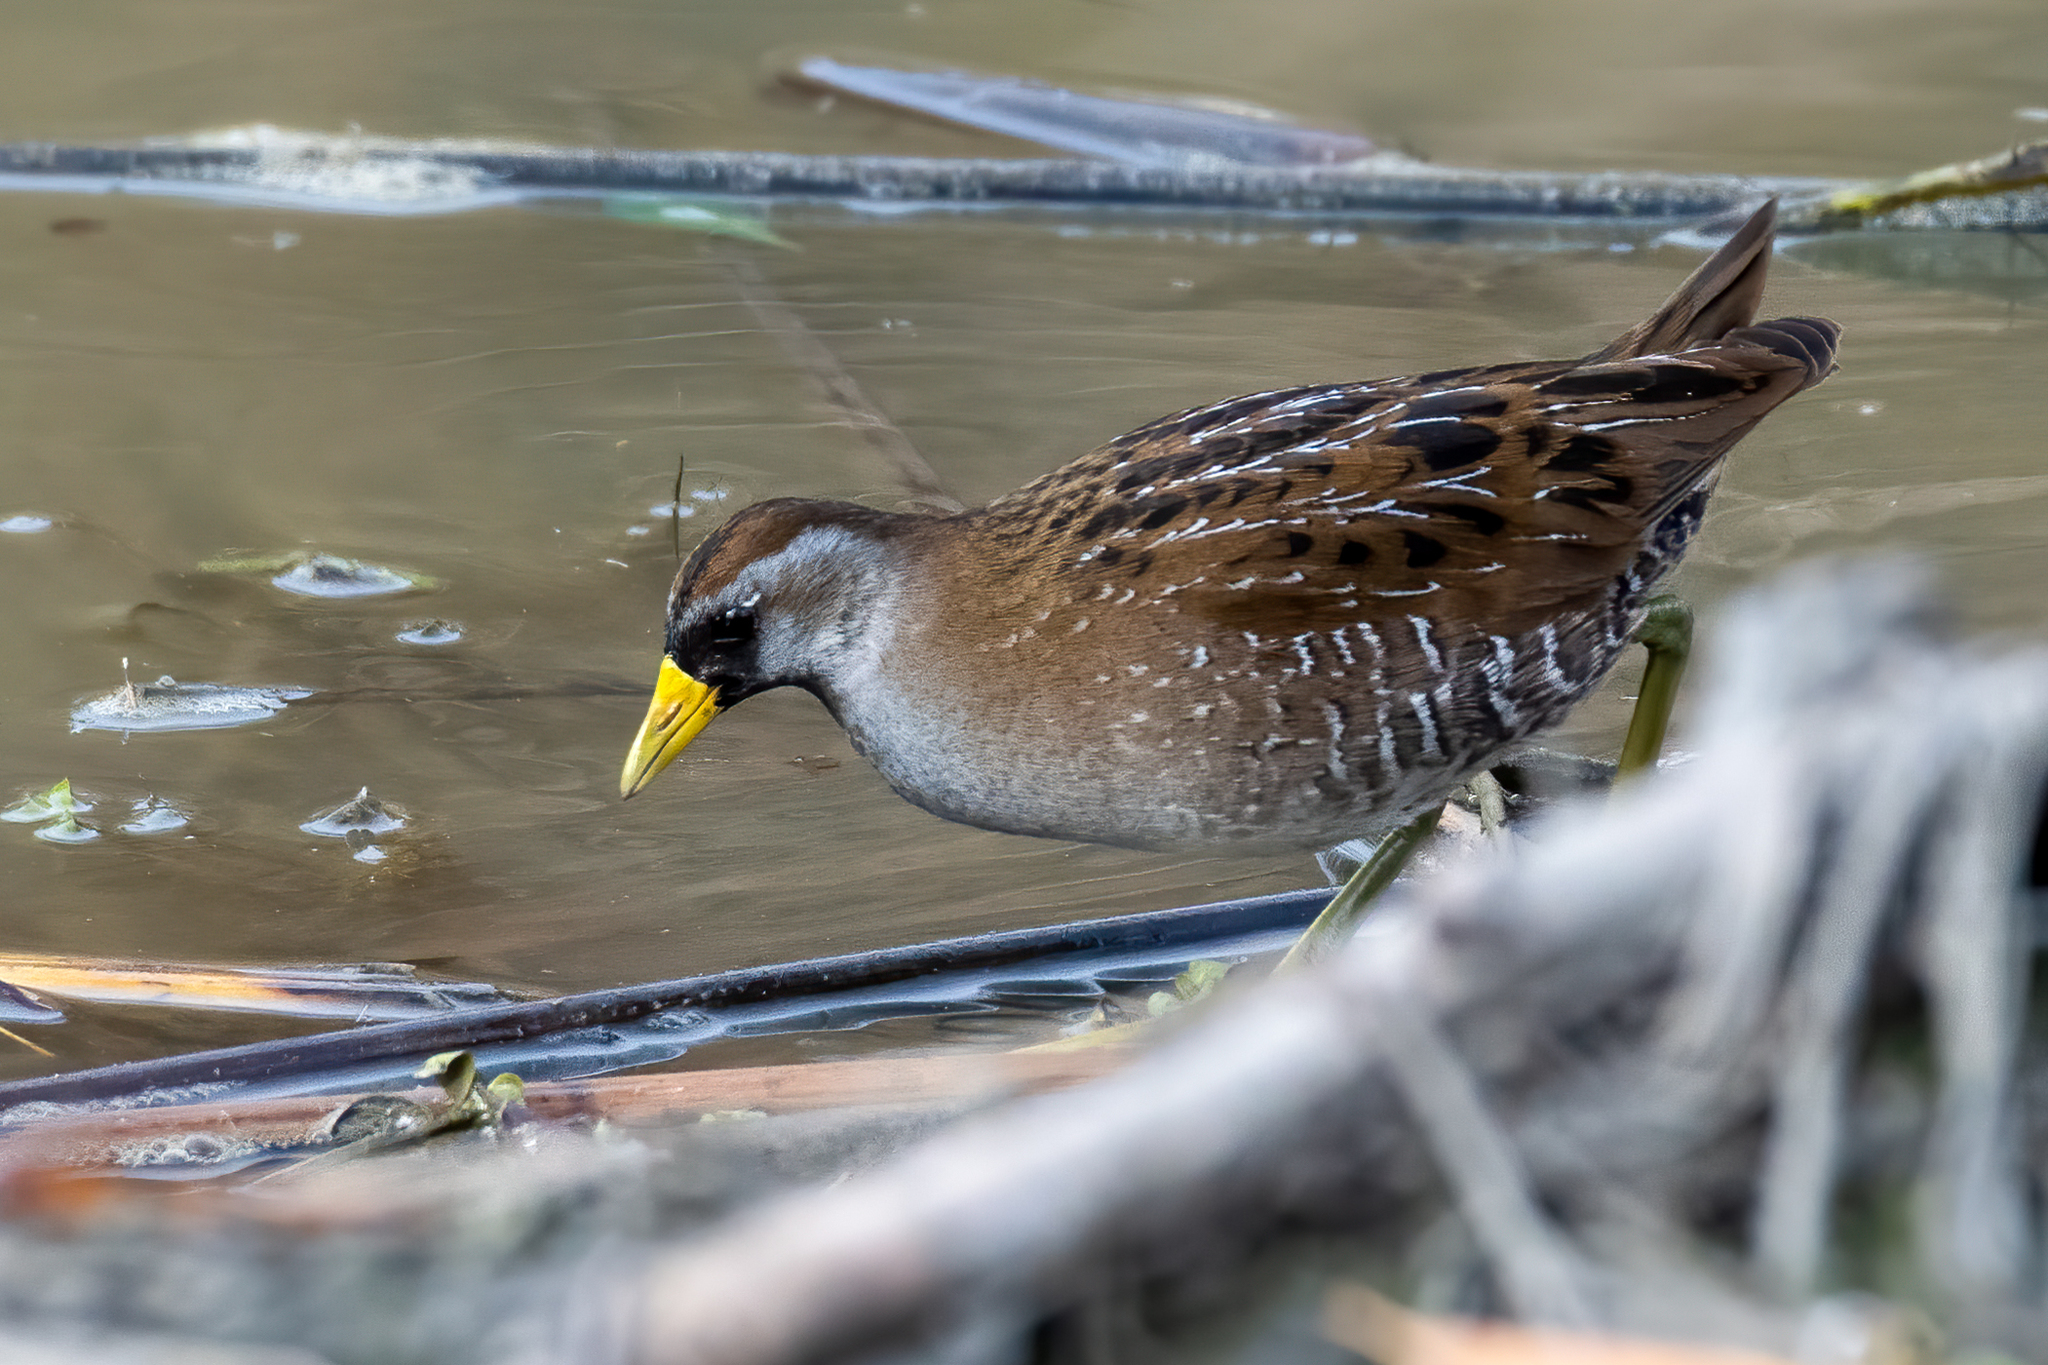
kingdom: Animalia
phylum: Chordata
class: Aves
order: Gruiformes
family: Rallidae
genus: Porzana
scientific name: Porzana carolina
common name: Sora
